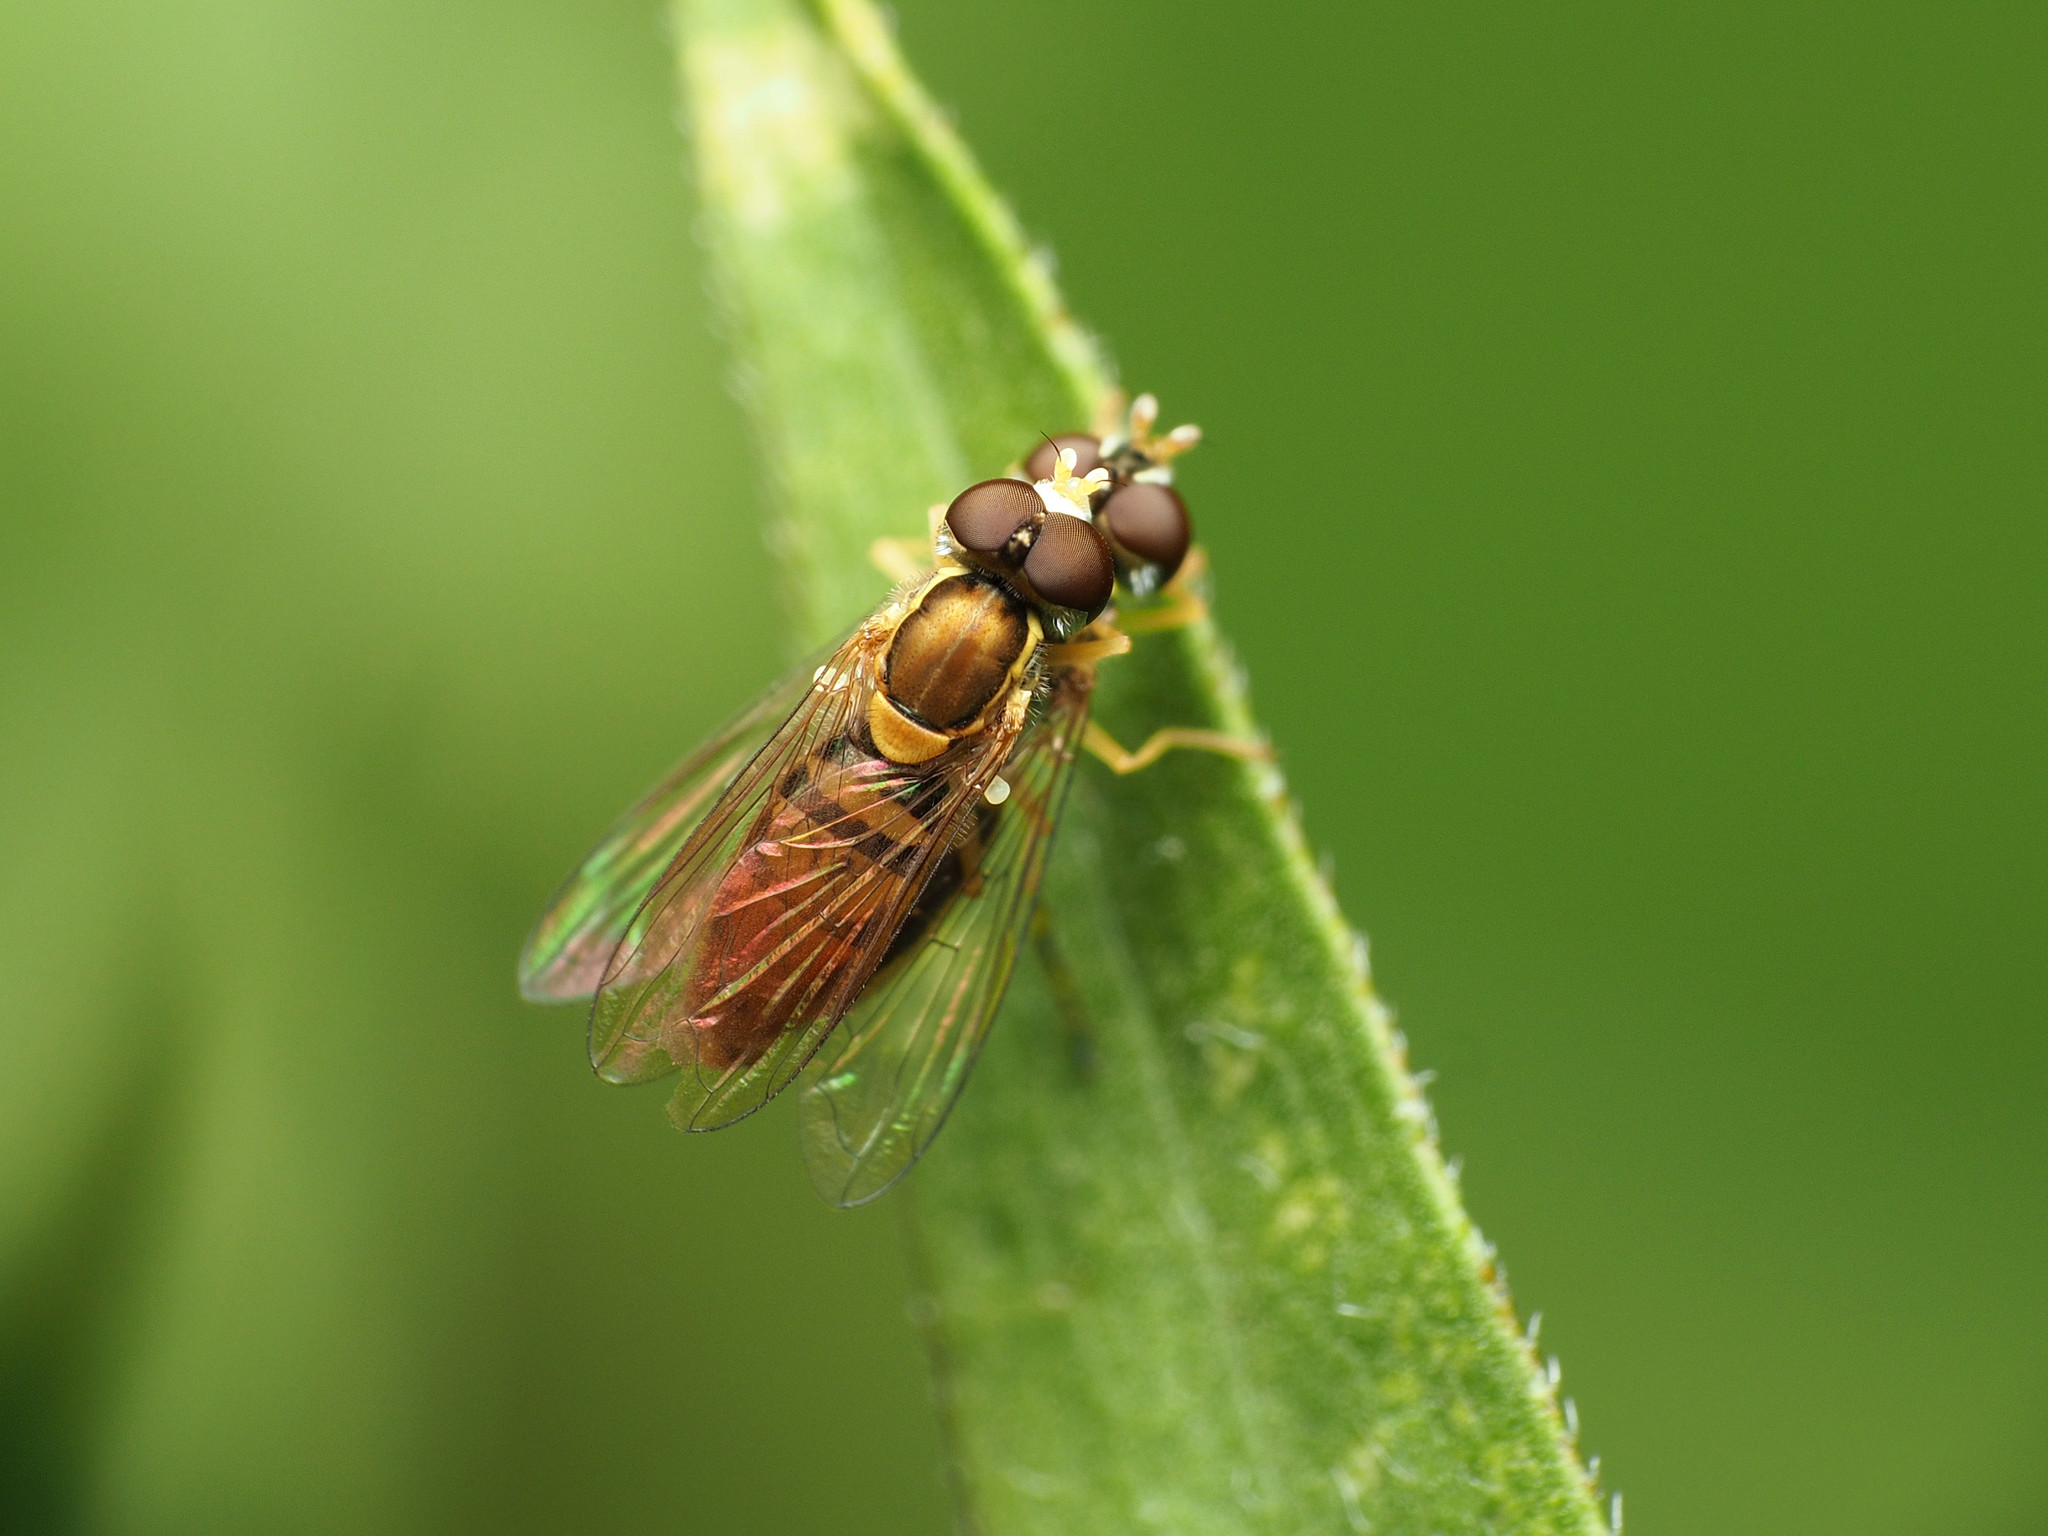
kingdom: Animalia
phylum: Arthropoda
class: Insecta
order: Diptera
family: Syrphidae
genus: Toxomerus
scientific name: Toxomerus marginatus
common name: Syrphid fly
